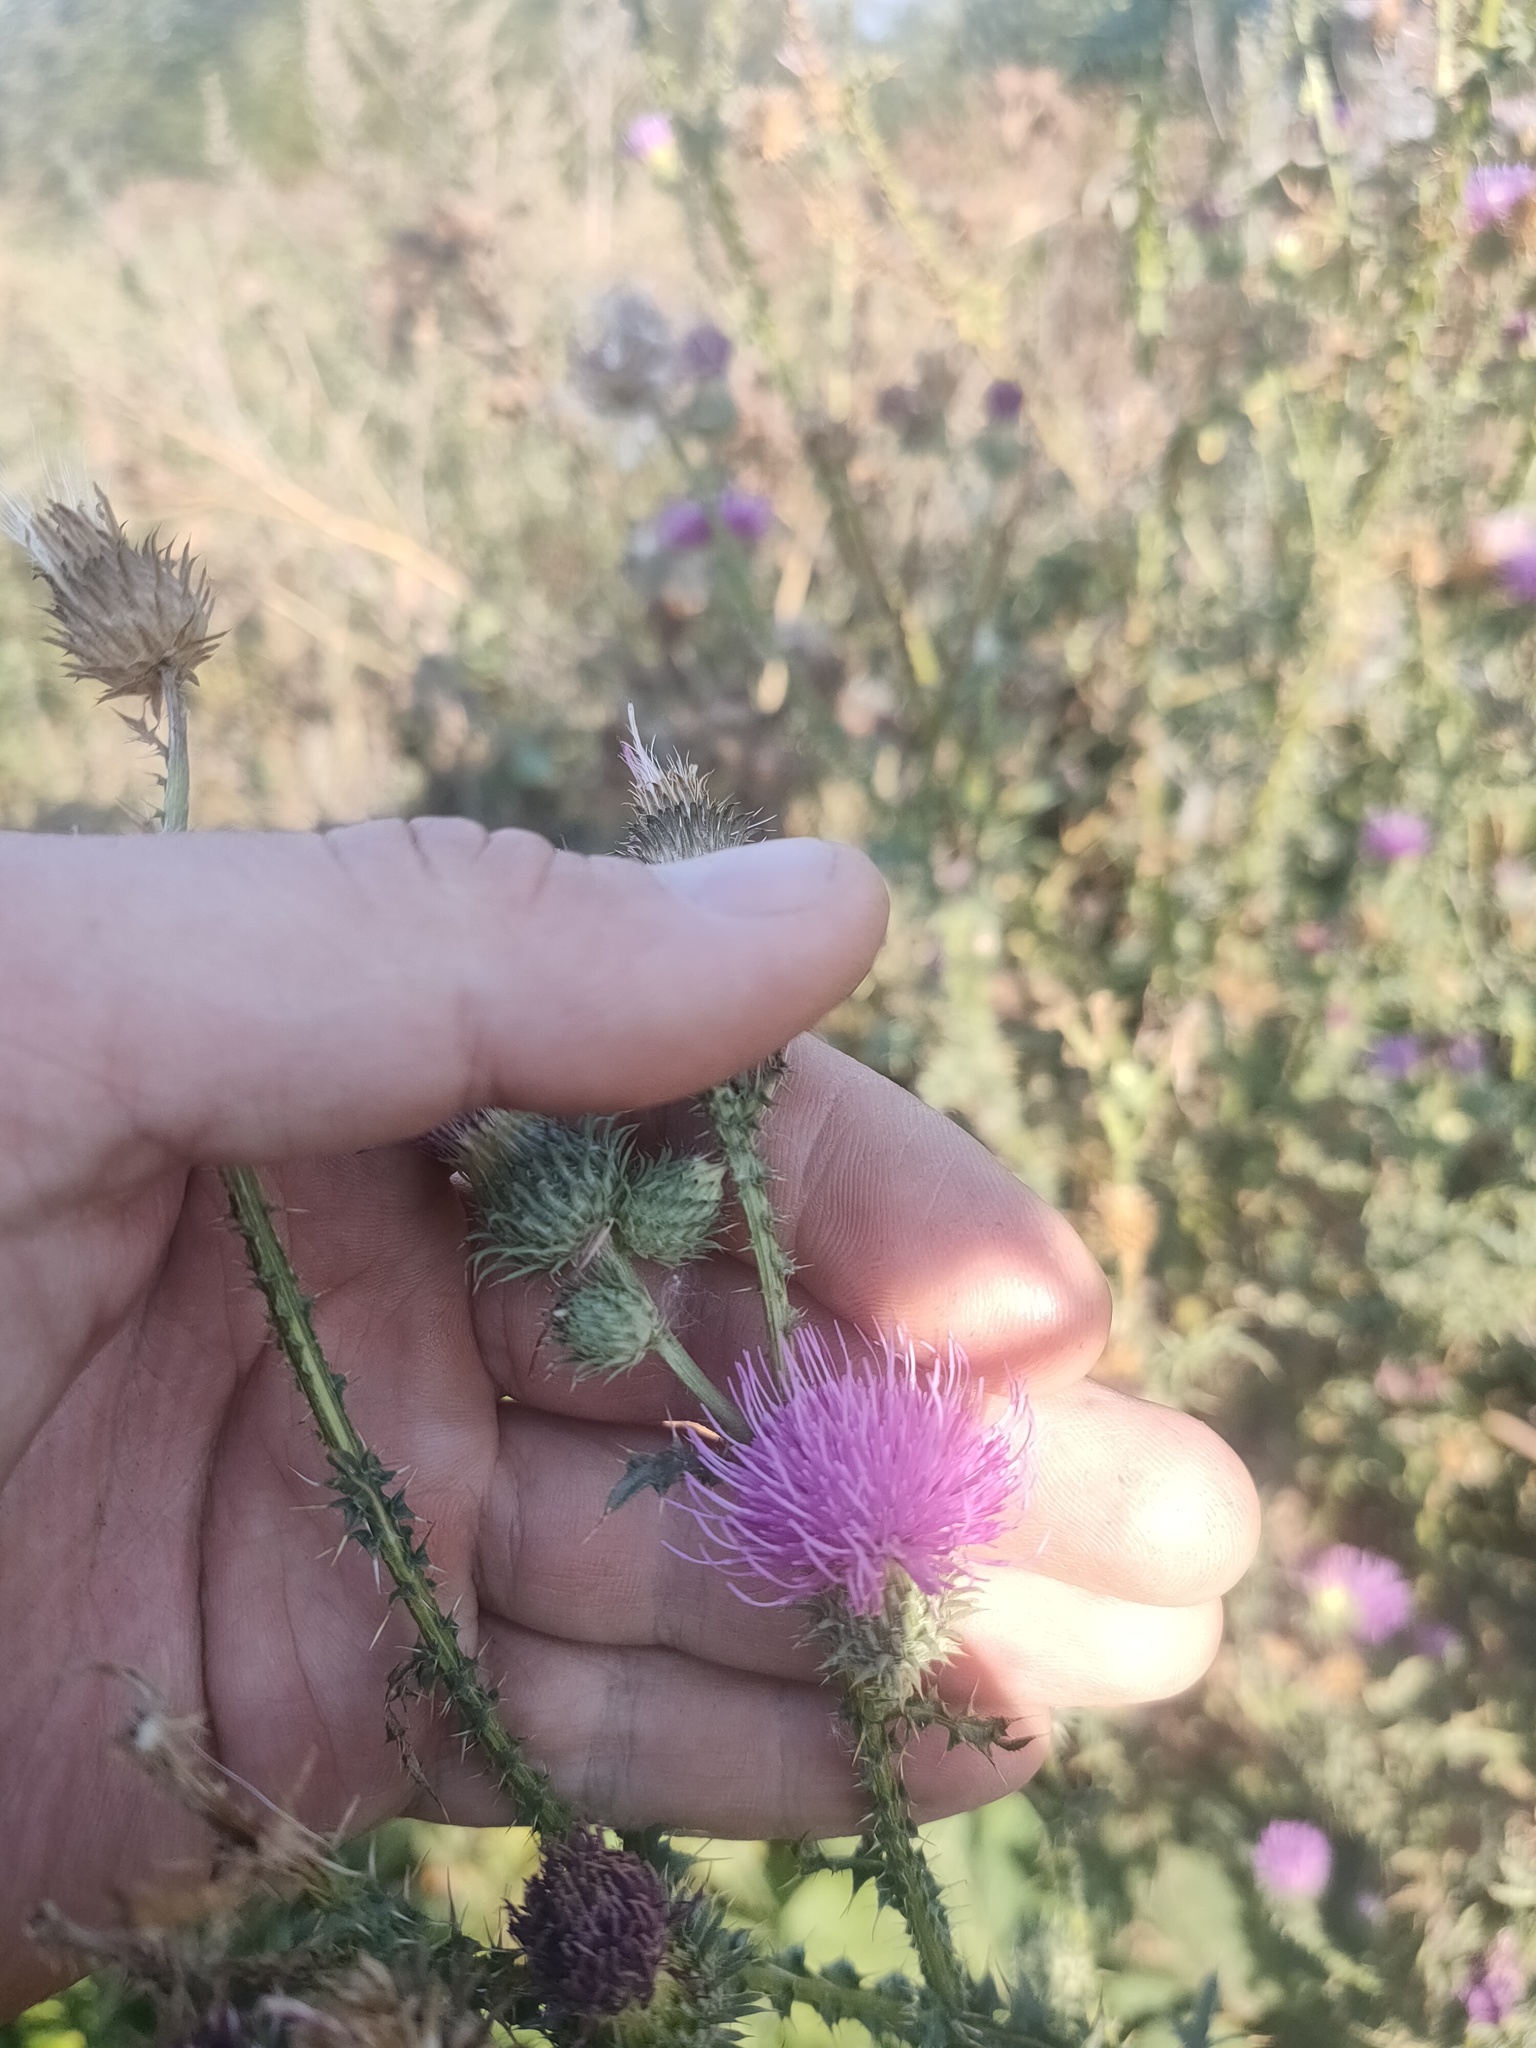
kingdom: Plantae
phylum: Tracheophyta
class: Magnoliopsida
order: Asterales
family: Asteraceae
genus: Carduus
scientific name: Carduus crispus
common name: Welted thistle
